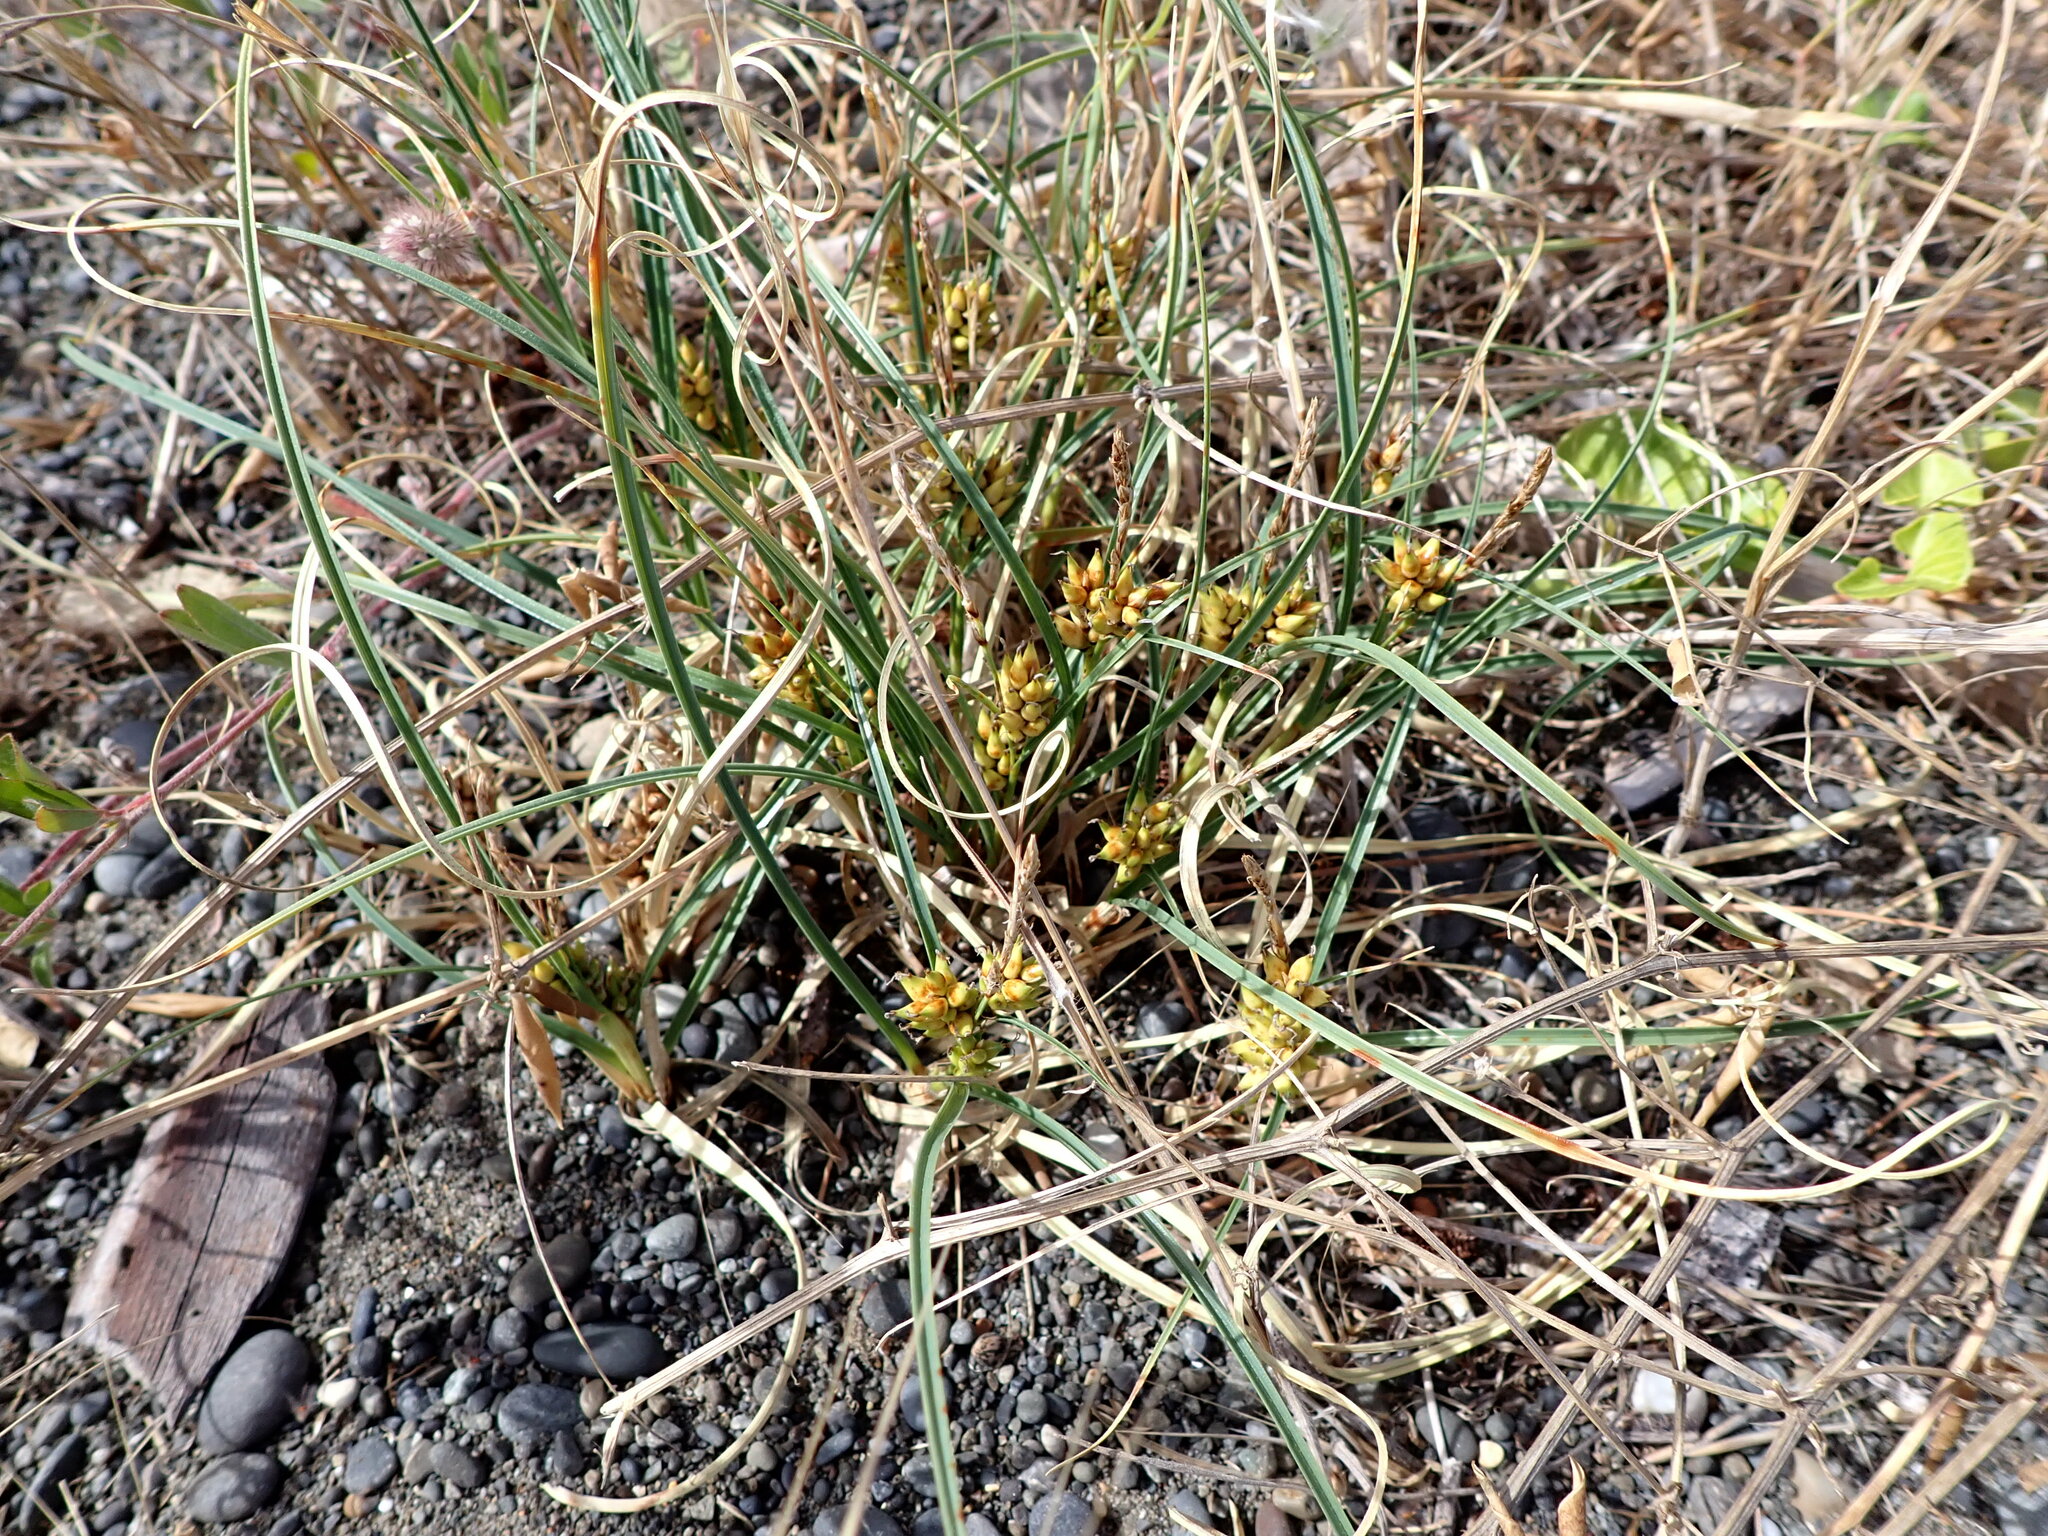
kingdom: Plantae
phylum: Tracheophyta
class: Liliopsida
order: Poales
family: Cyperaceae
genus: Carex
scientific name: Carex pumila
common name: Dwarf sedge
